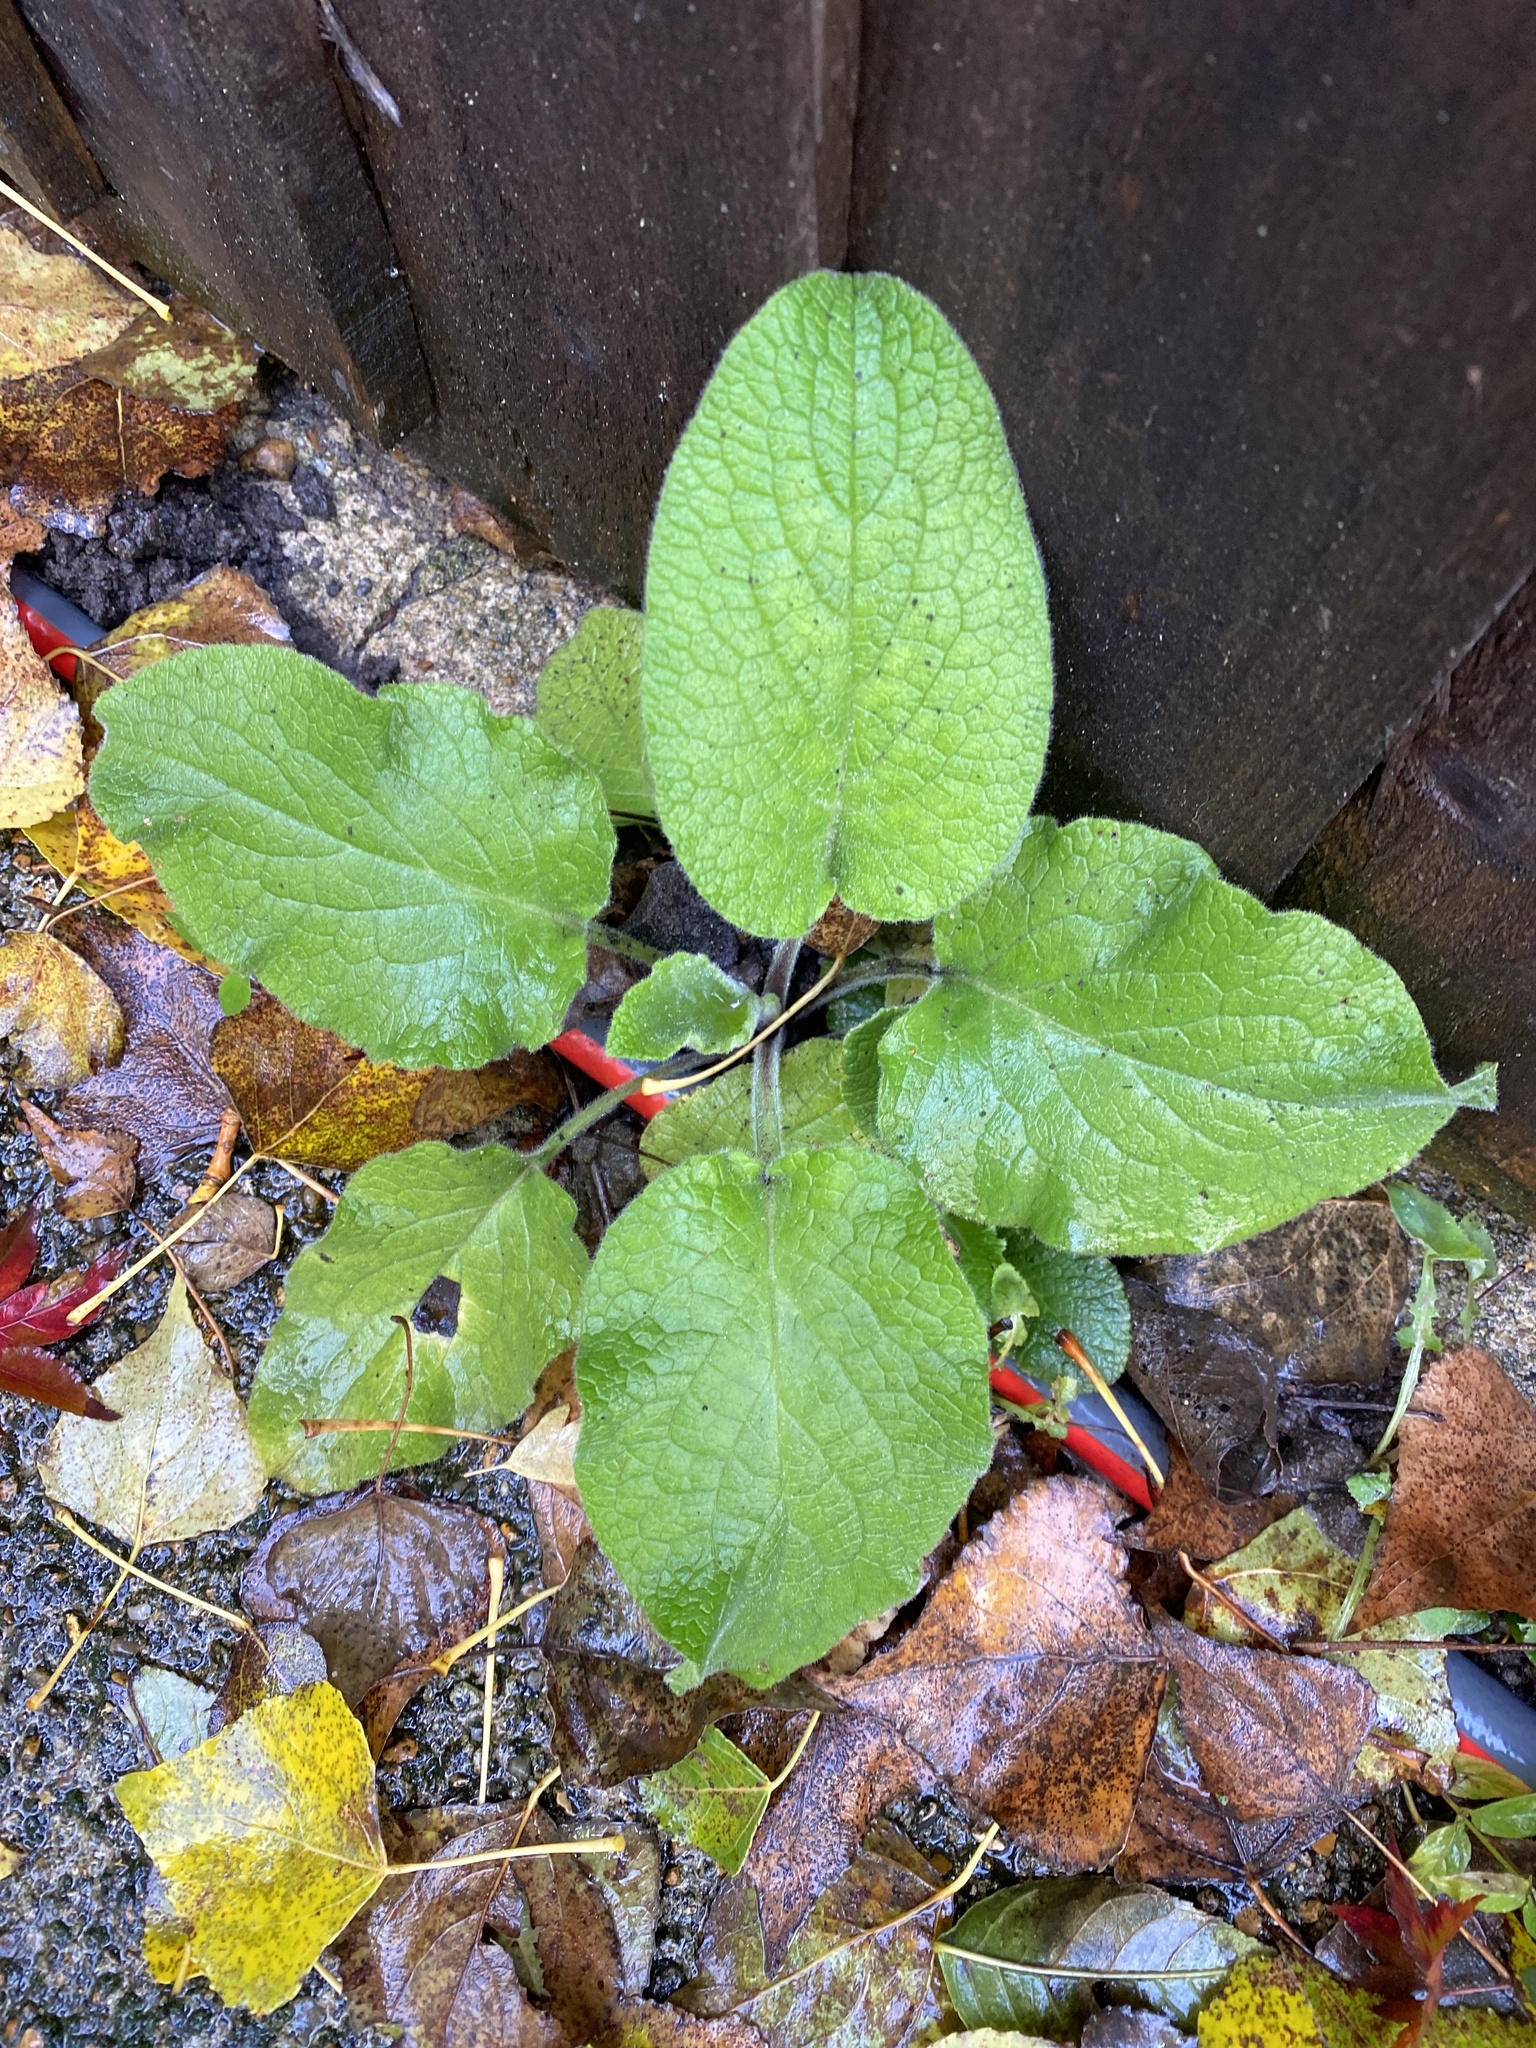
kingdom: Plantae
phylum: Tracheophyta
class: Magnoliopsida
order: Boraginales
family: Boraginaceae
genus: Pentaglottis
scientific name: Pentaglottis sempervirens
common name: Green alkanet
